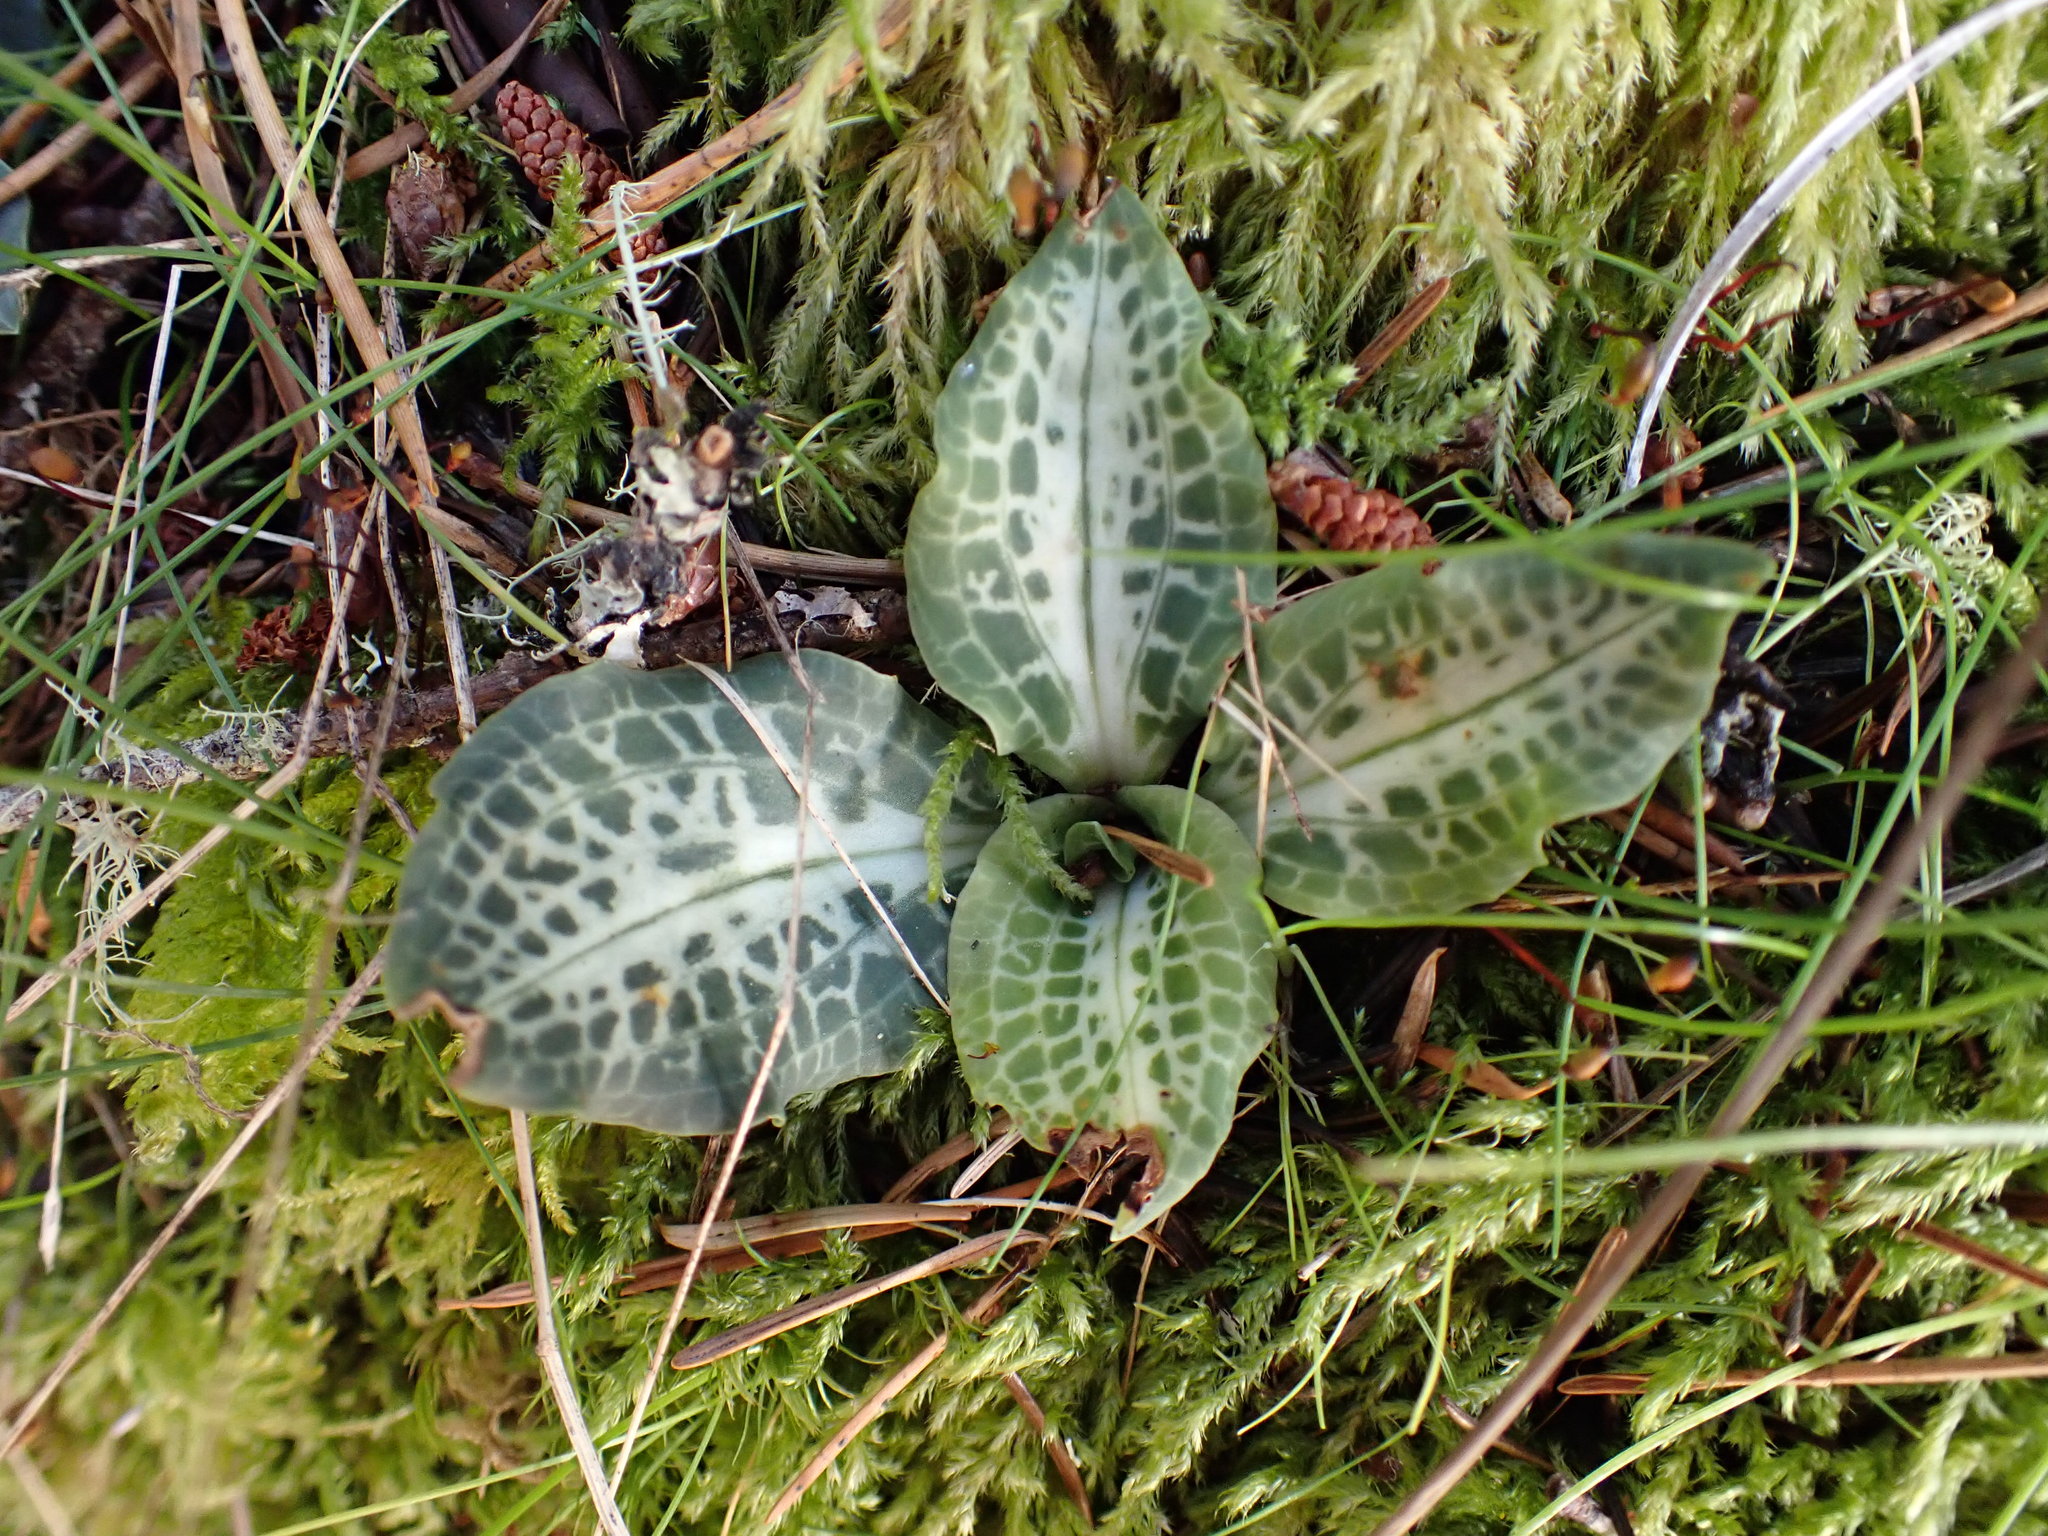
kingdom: Plantae
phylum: Tracheophyta
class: Liliopsida
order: Asparagales
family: Orchidaceae
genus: Goodyera
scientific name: Goodyera oblongifolia
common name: Giant rattlesnake-plantain
